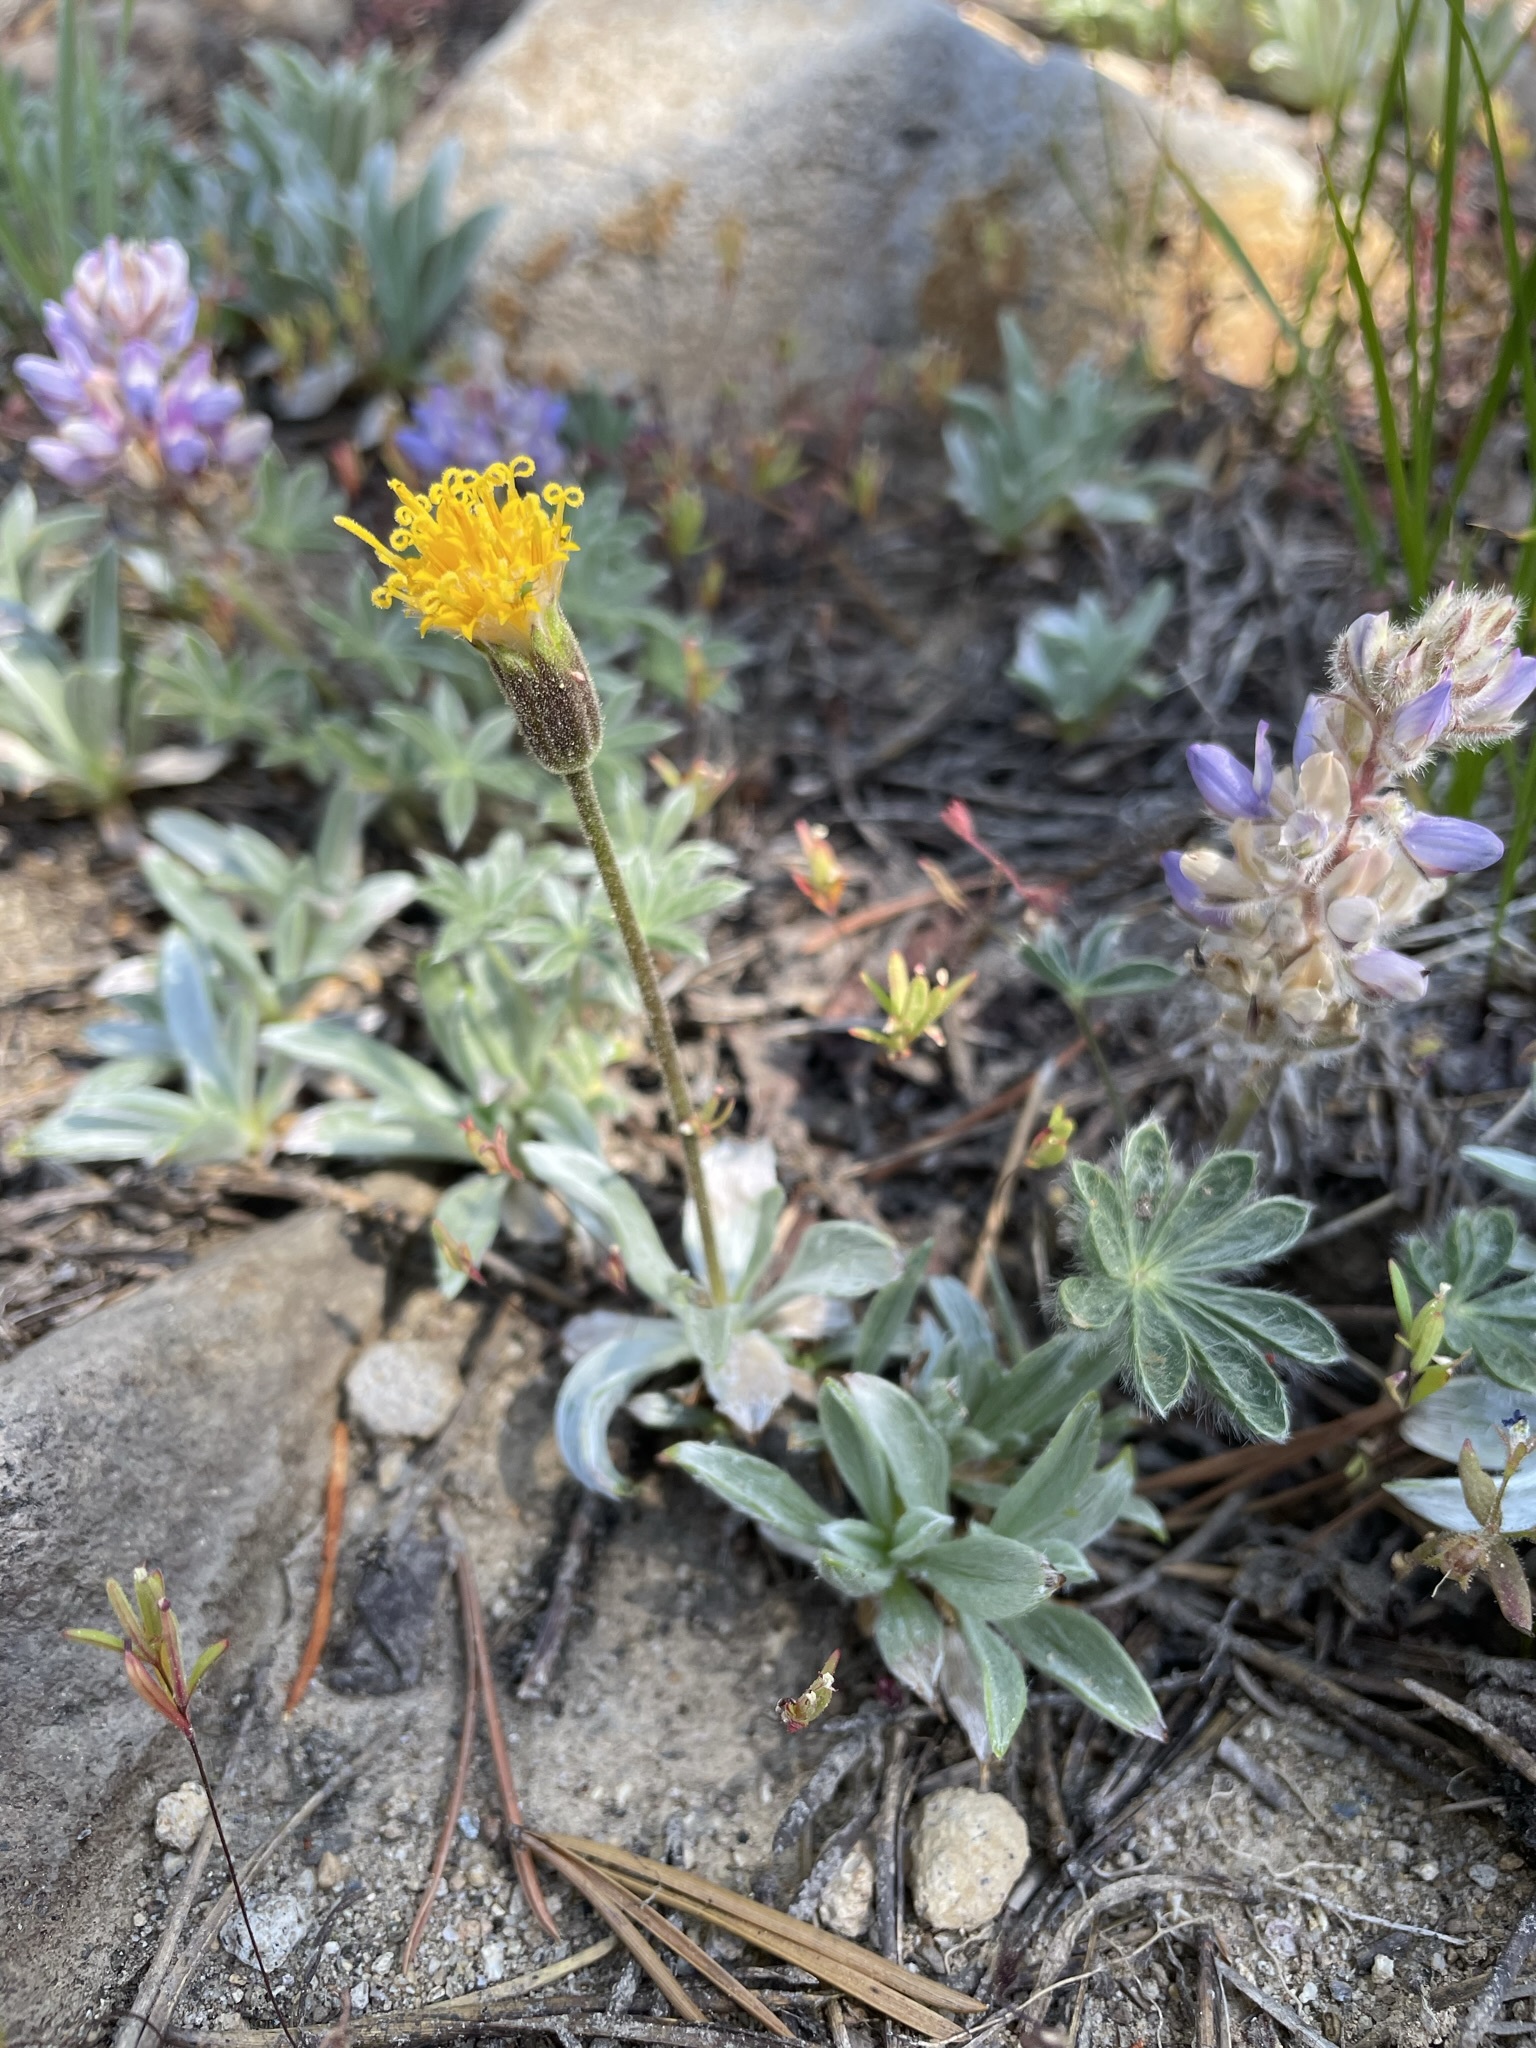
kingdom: Plantae
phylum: Tracheophyta
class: Magnoliopsida
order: Asterales
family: Asteraceae
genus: Raillardella
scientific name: Raillardella argentea
